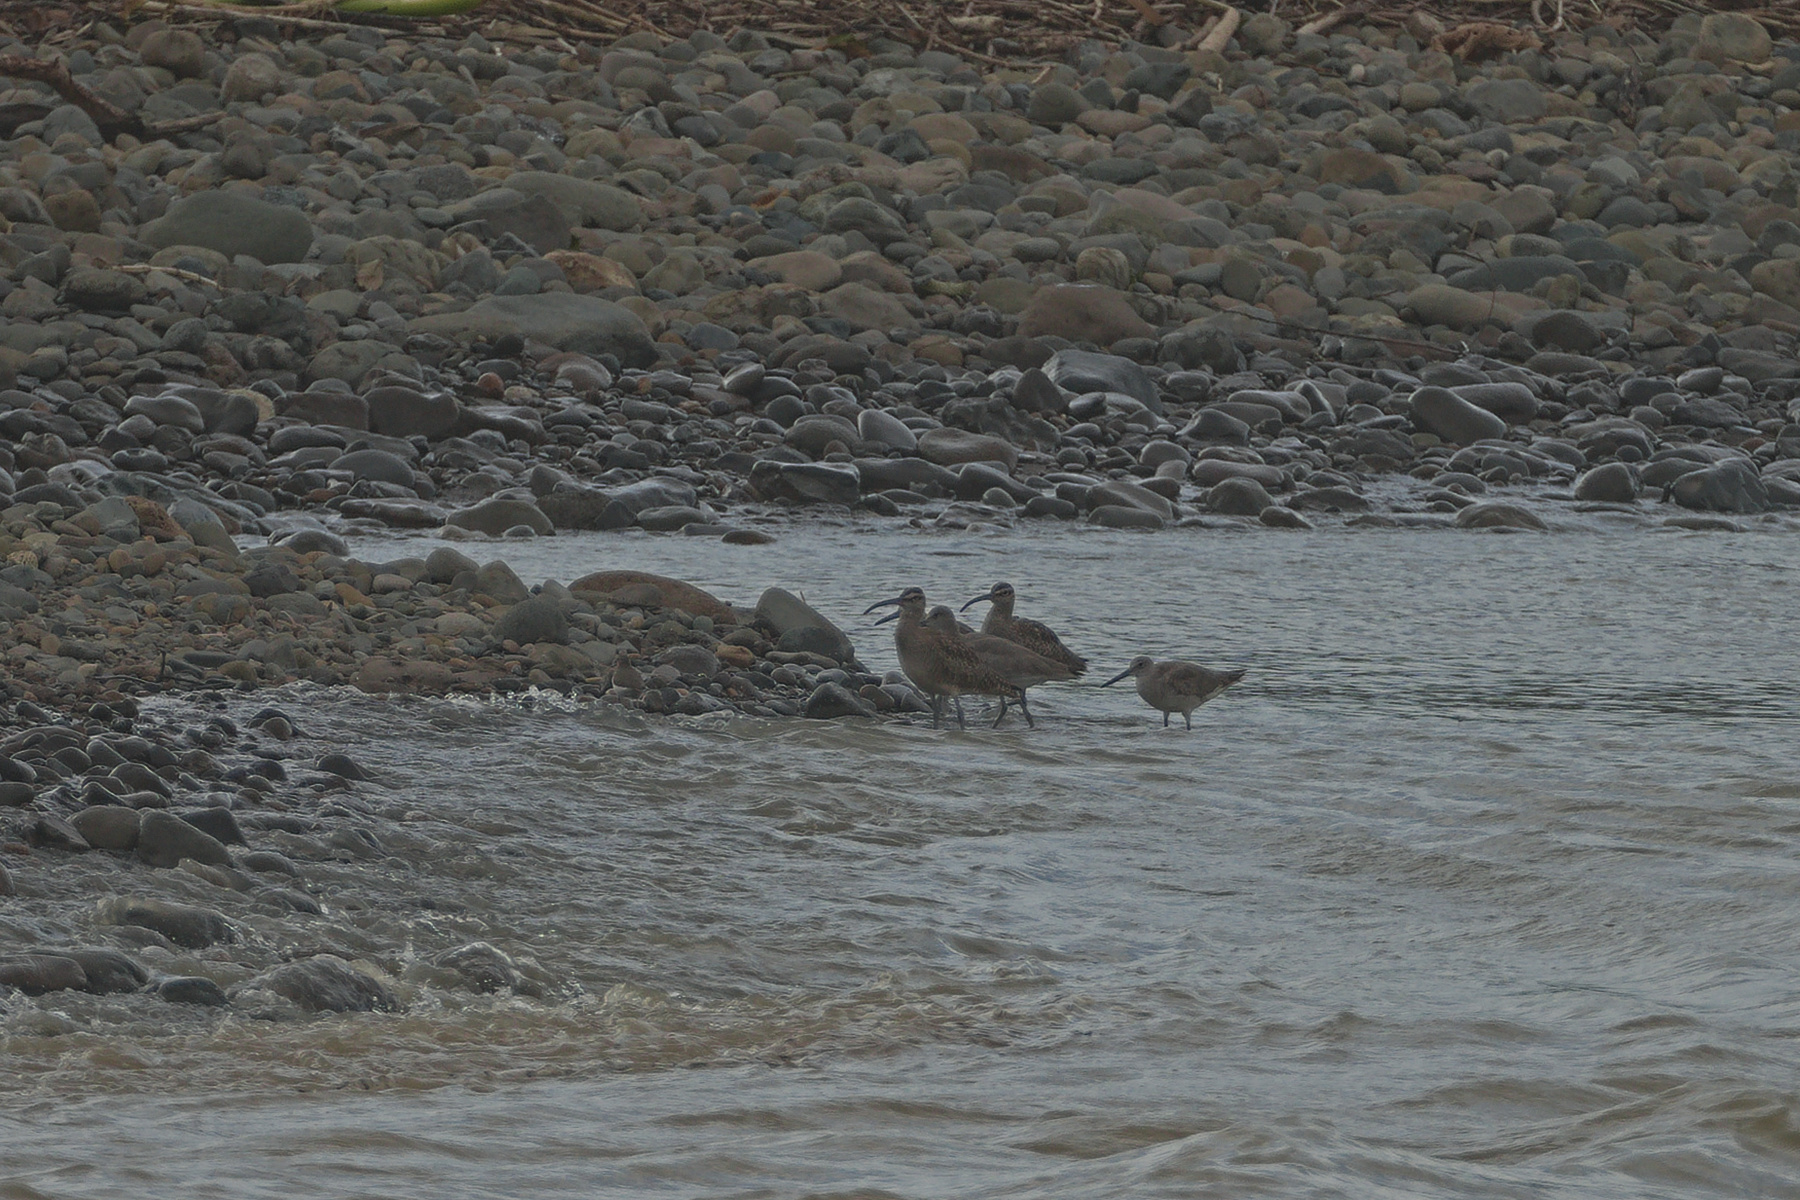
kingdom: Animalia
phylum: Chordata
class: Aves
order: Charadriiformes
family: Scolopacidae
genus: Actitis
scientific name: Actitis macularius
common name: Spotted sandpiper
